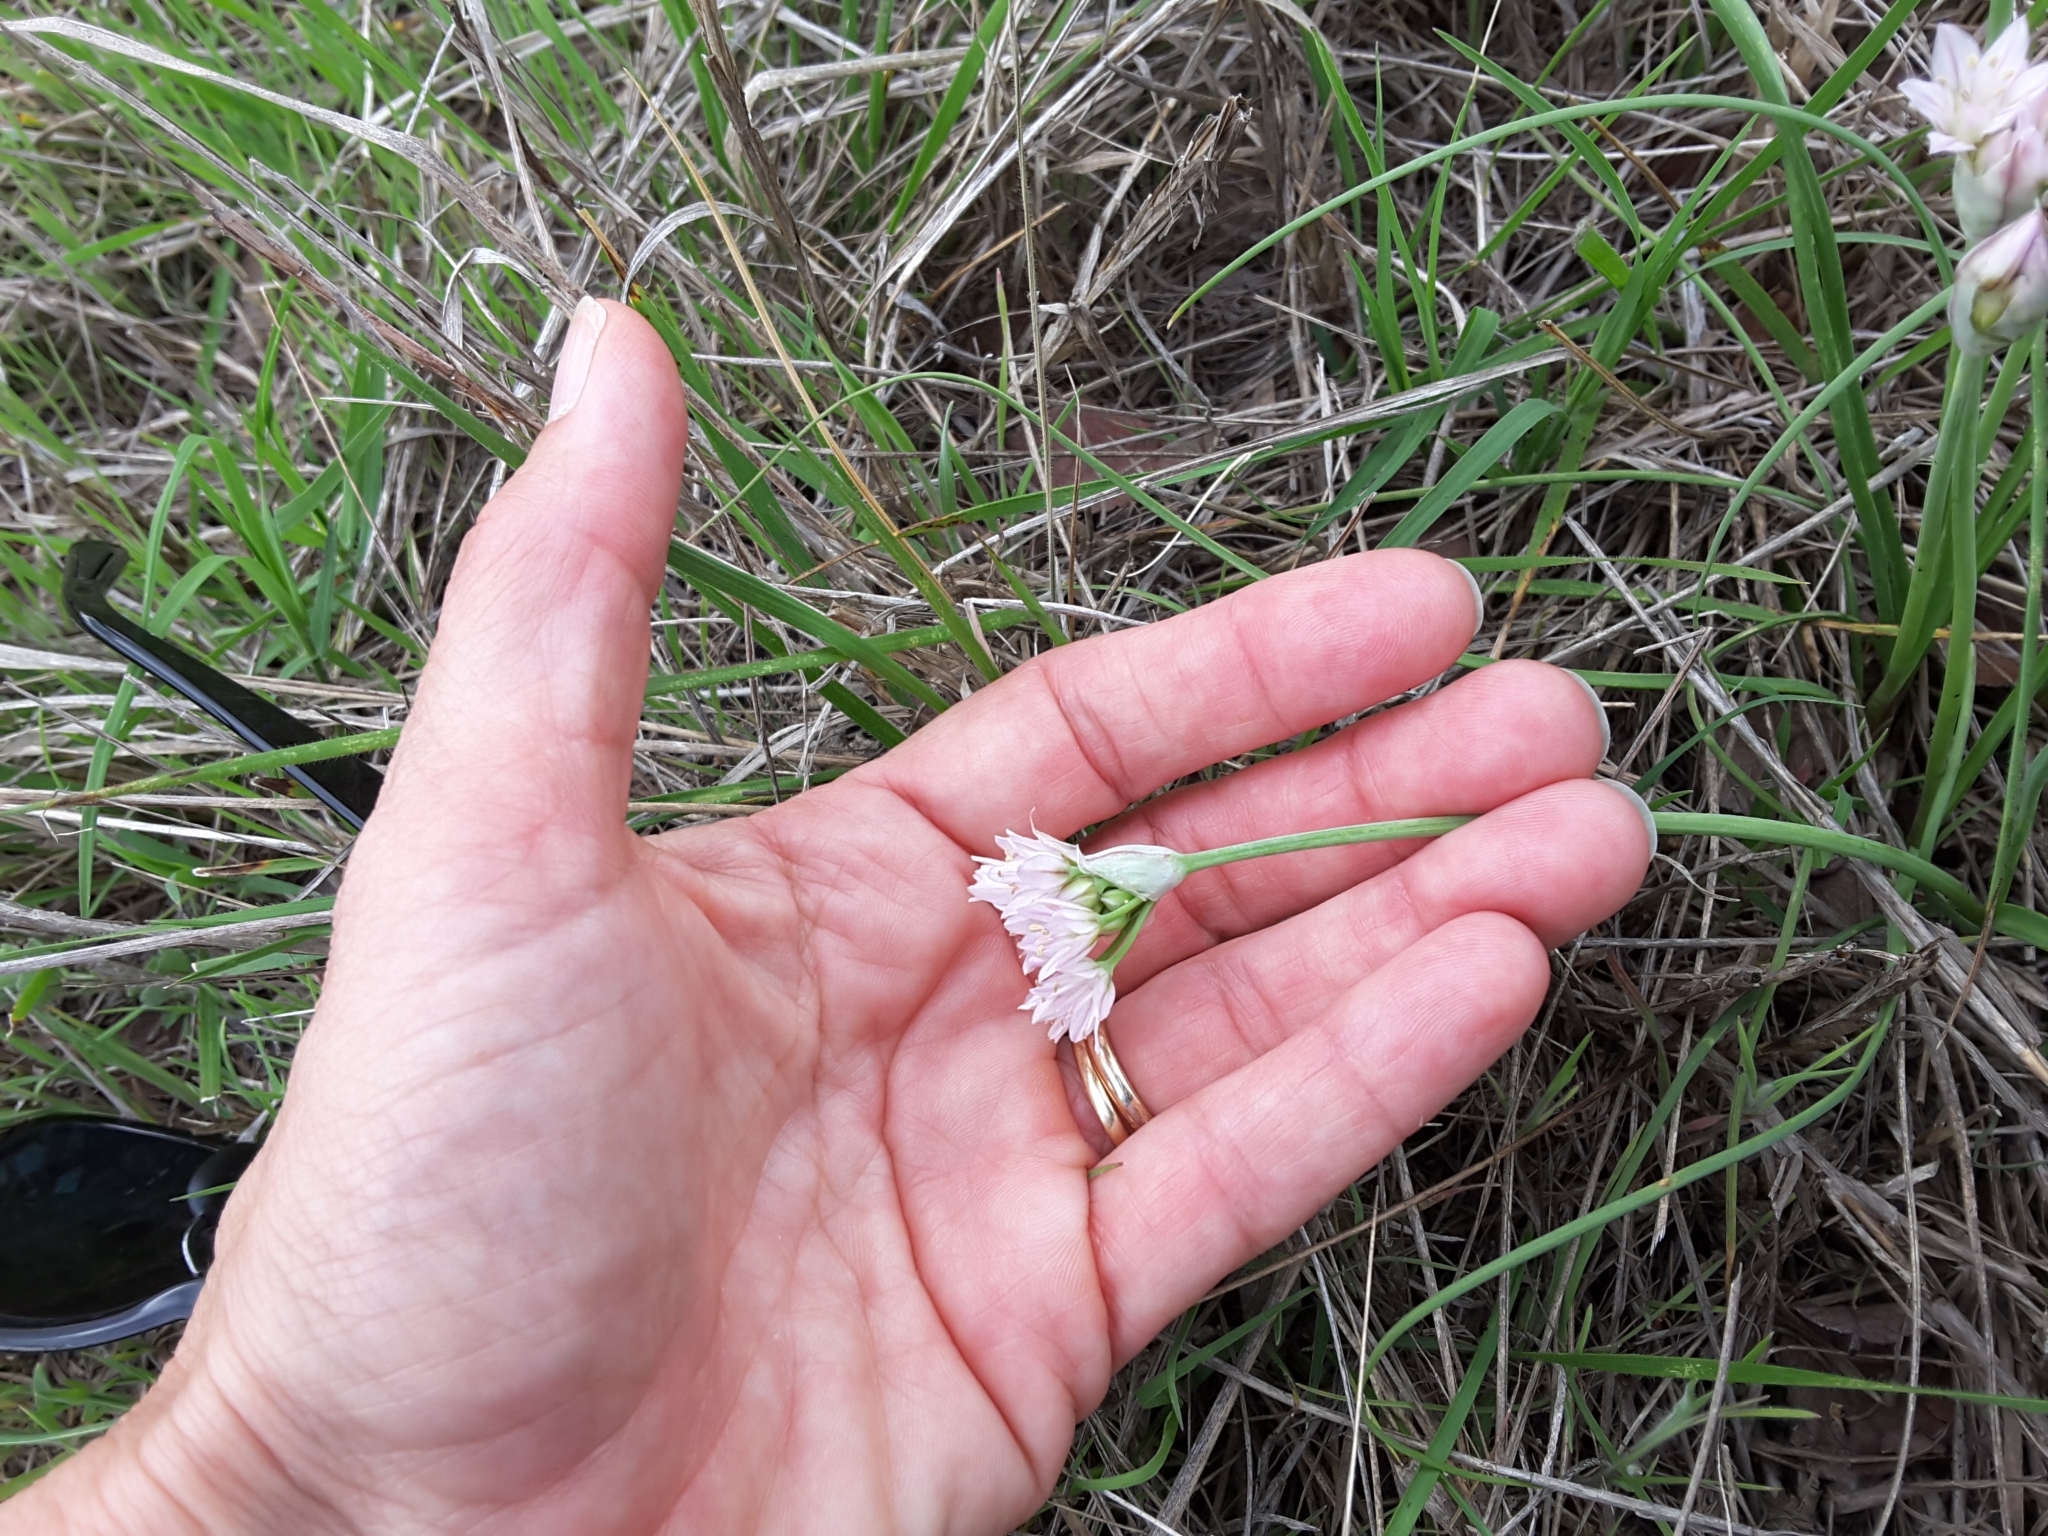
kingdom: Plantae
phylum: Tracheophyta
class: Liliopsida
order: Asparagales
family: Amaryllidaceae
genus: Allium
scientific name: Allium drummondii
